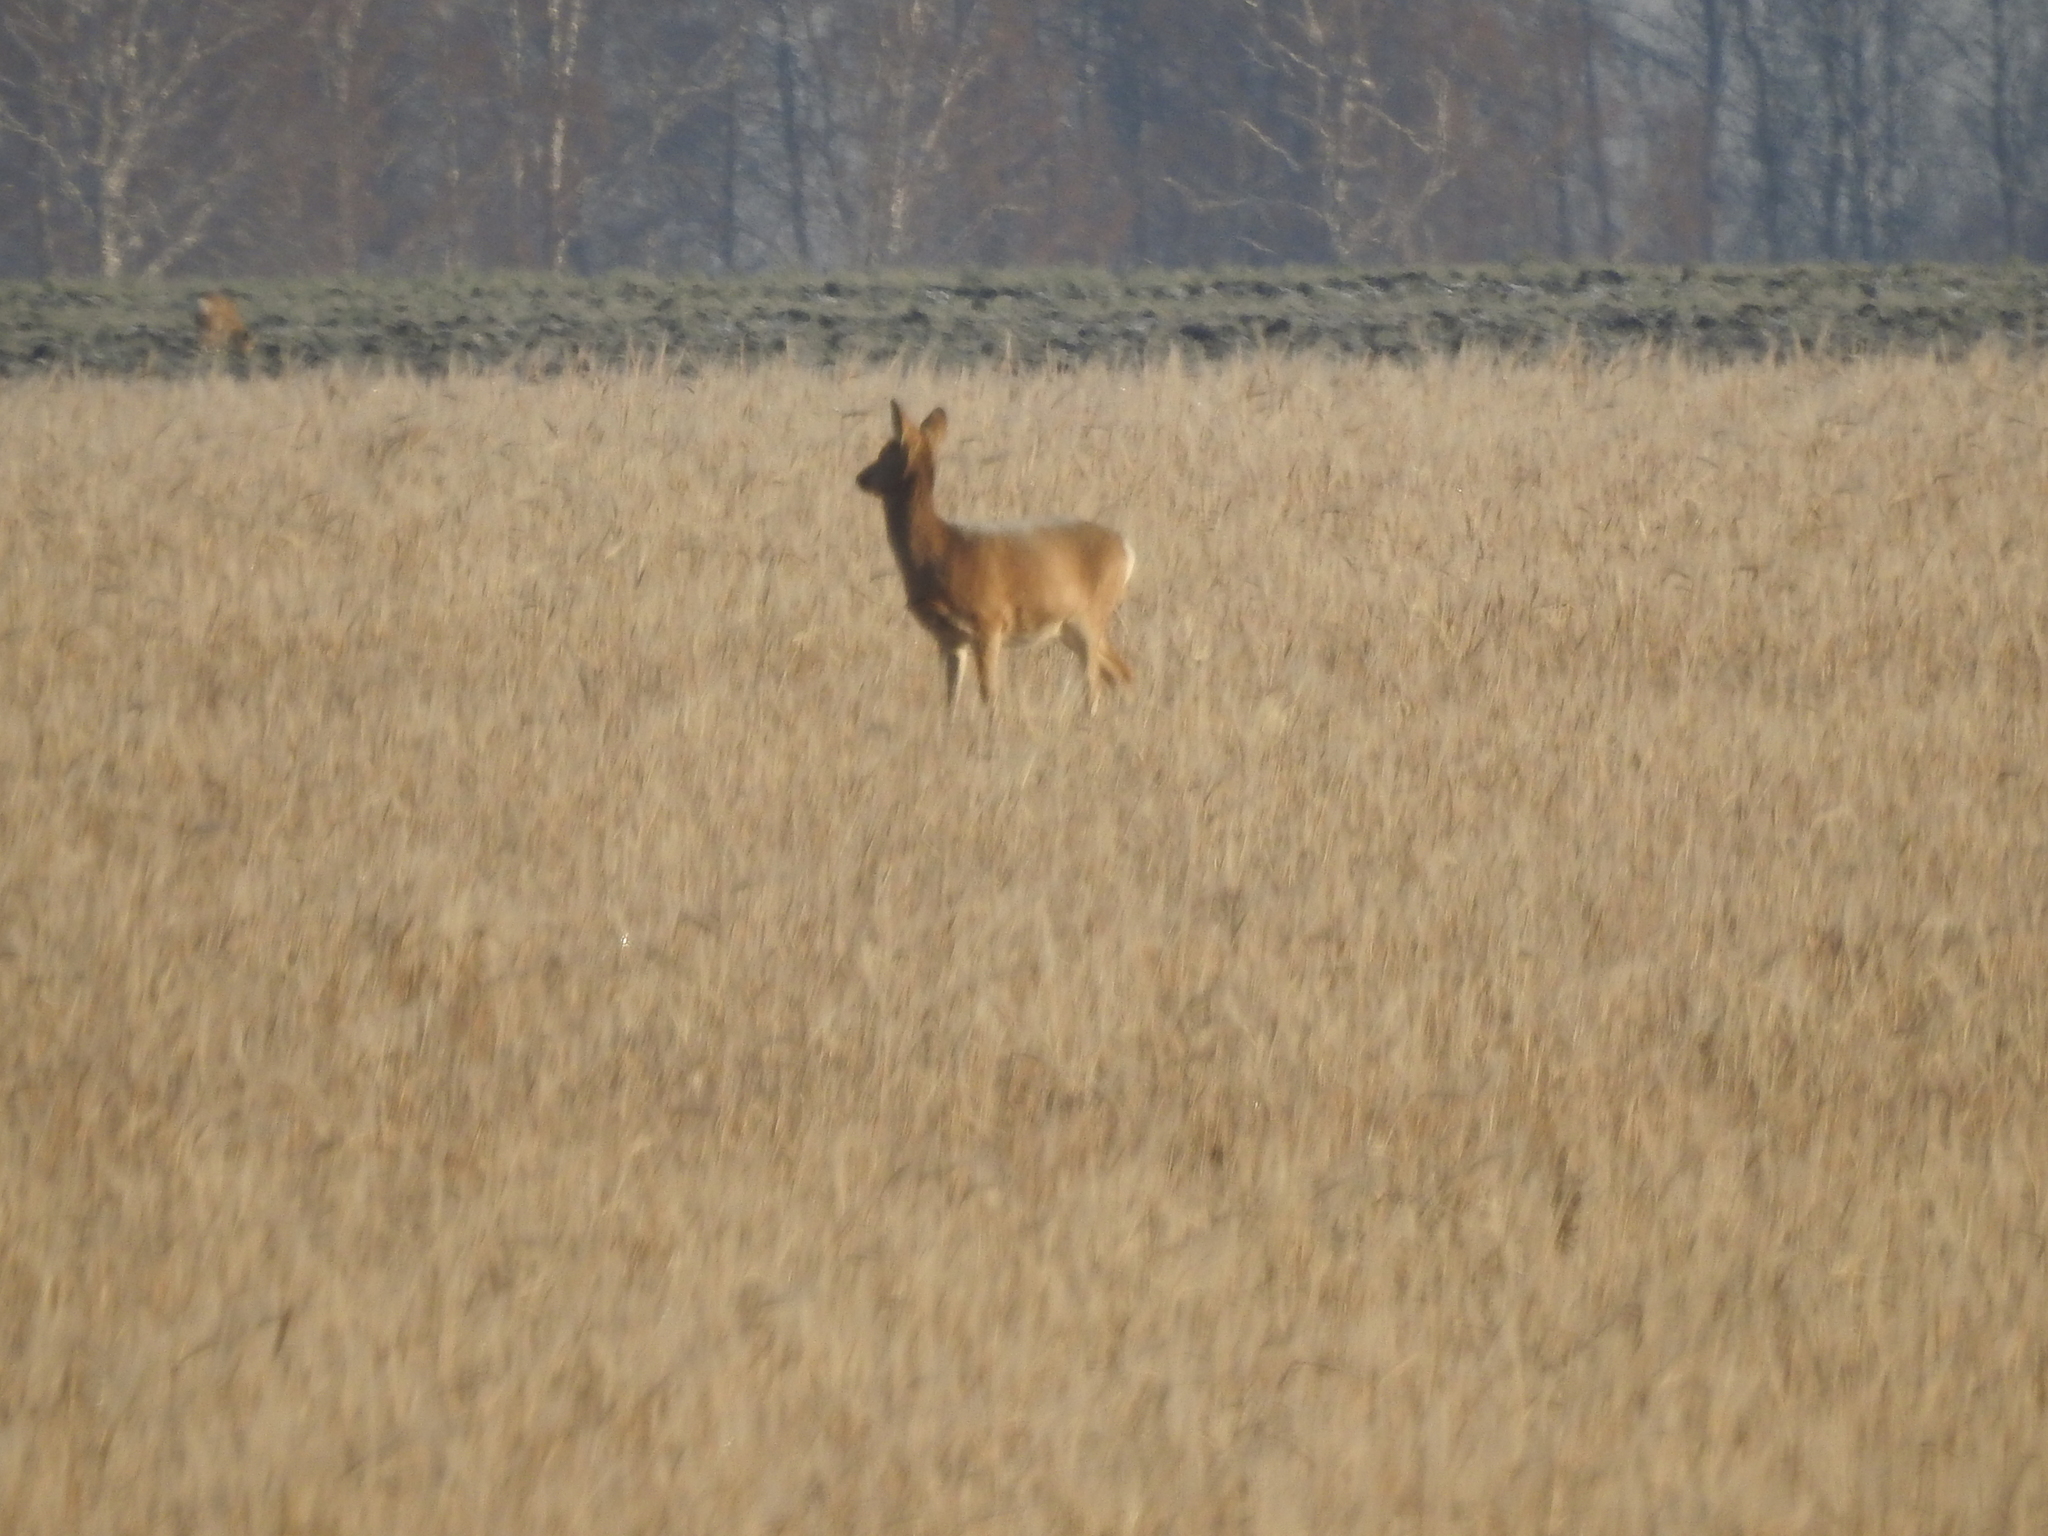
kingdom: Animalia
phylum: Chordata
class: Mammalia
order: Artiodactyla
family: Cervidae
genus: Capreolus
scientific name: Capreolus pygargus
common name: Siberian roe
